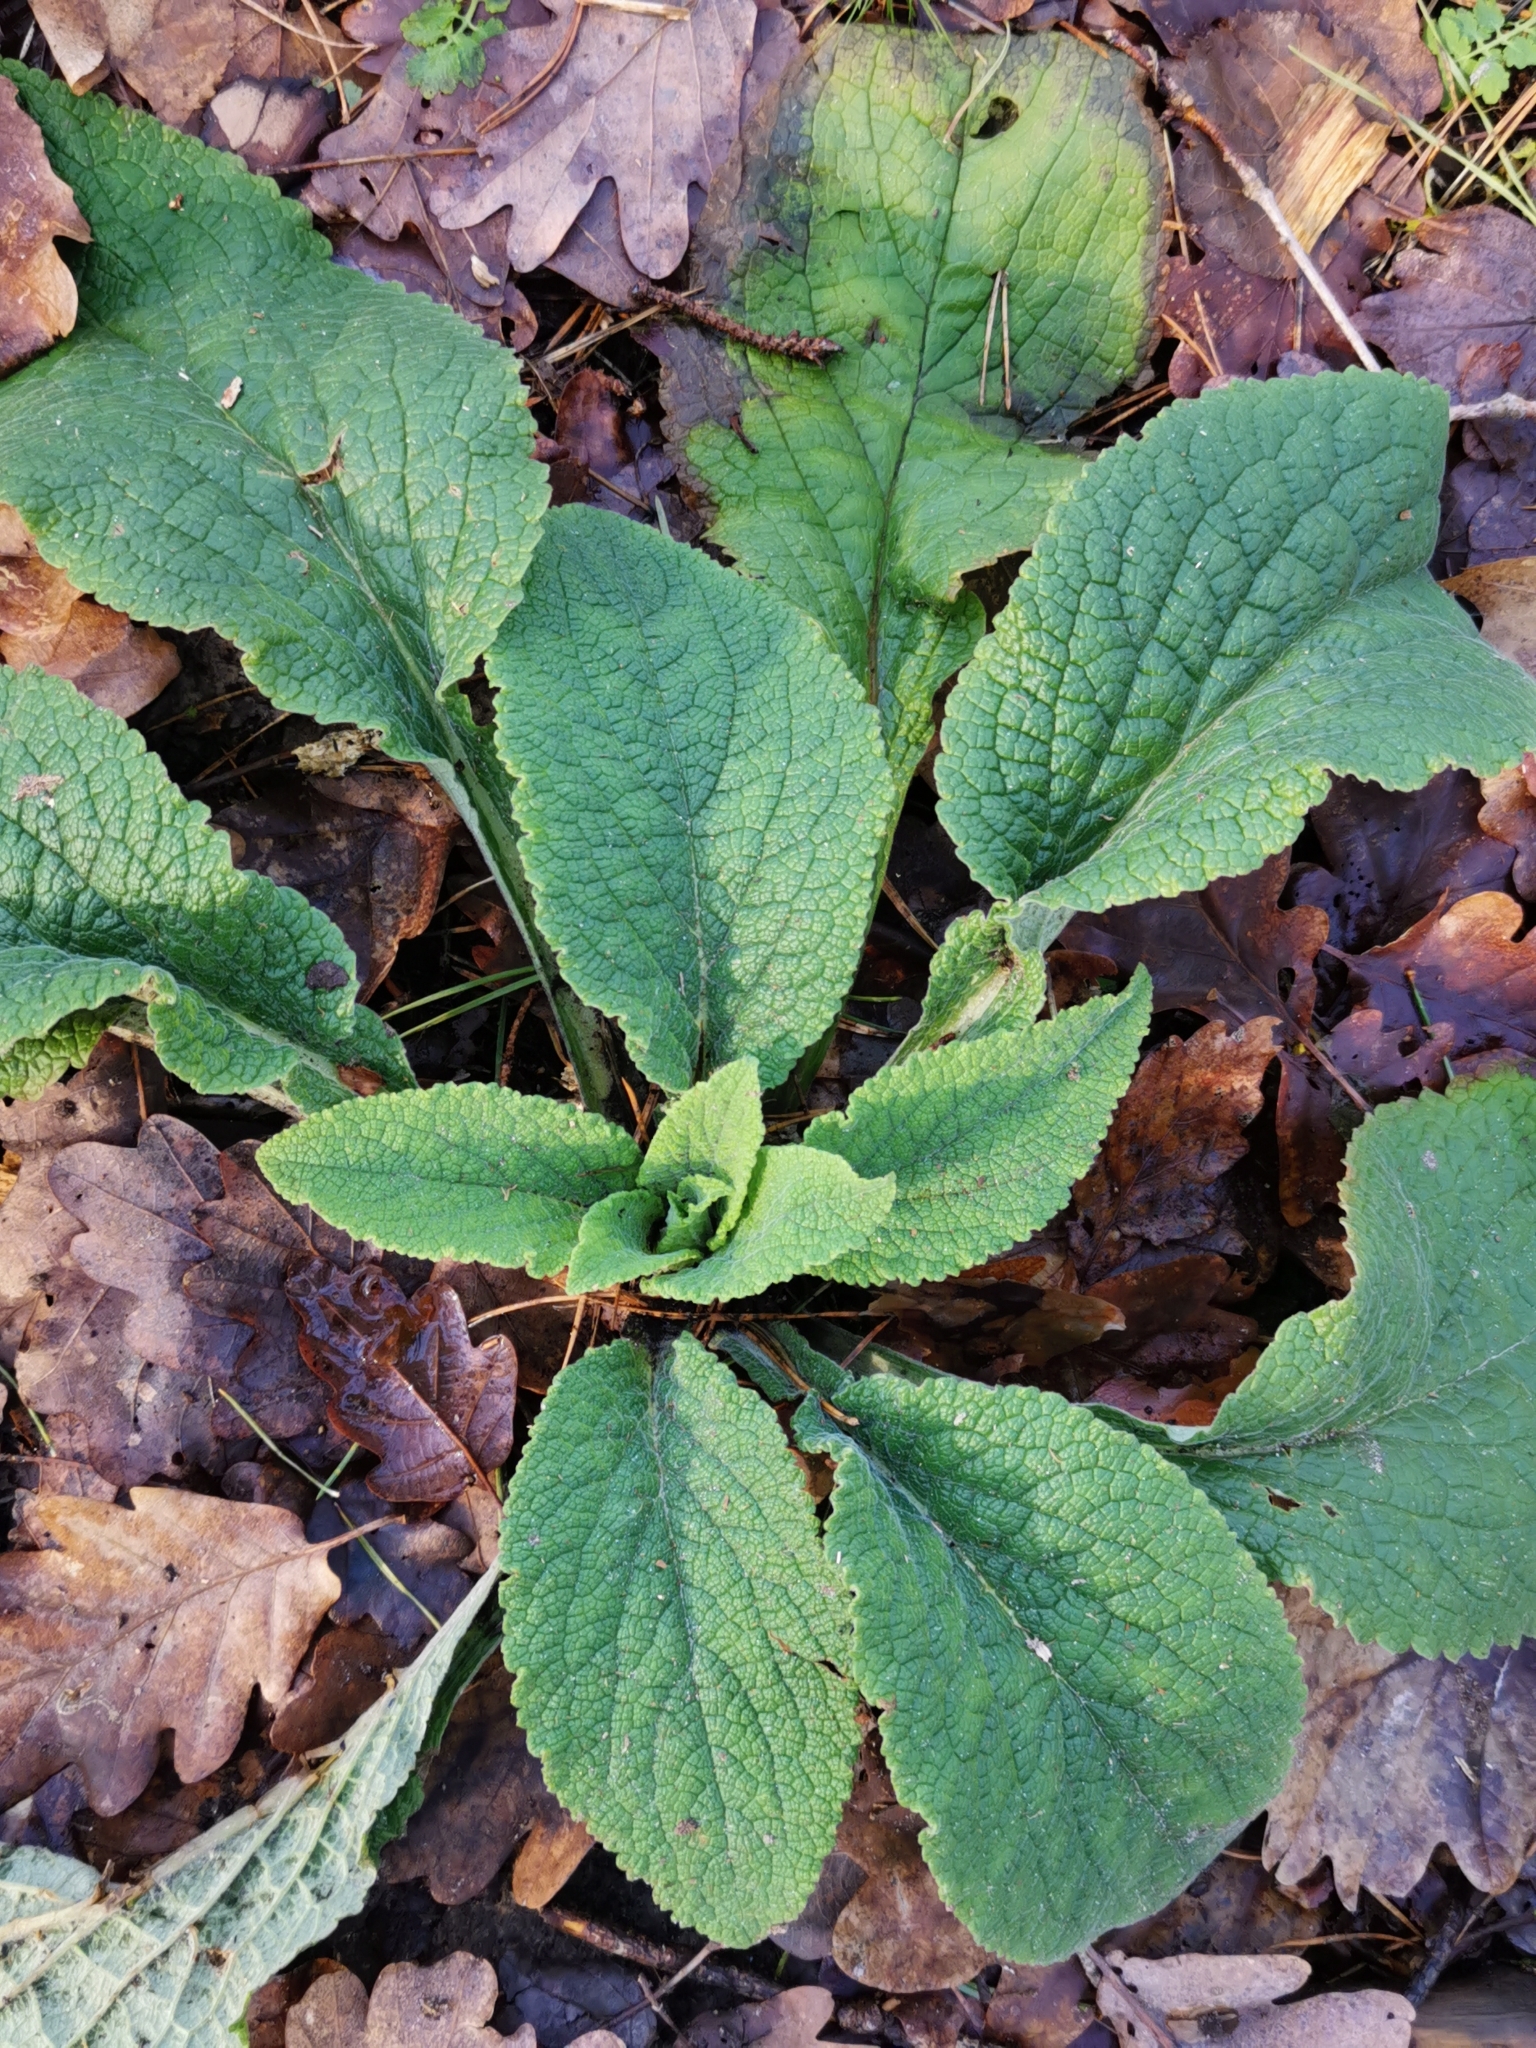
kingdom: Plantae
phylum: Tracheophyta
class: Magnoliopsida
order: Lamiales
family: Plantaginaceae
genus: Digitalis
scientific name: Digitalis purpurea
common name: Foxglove
